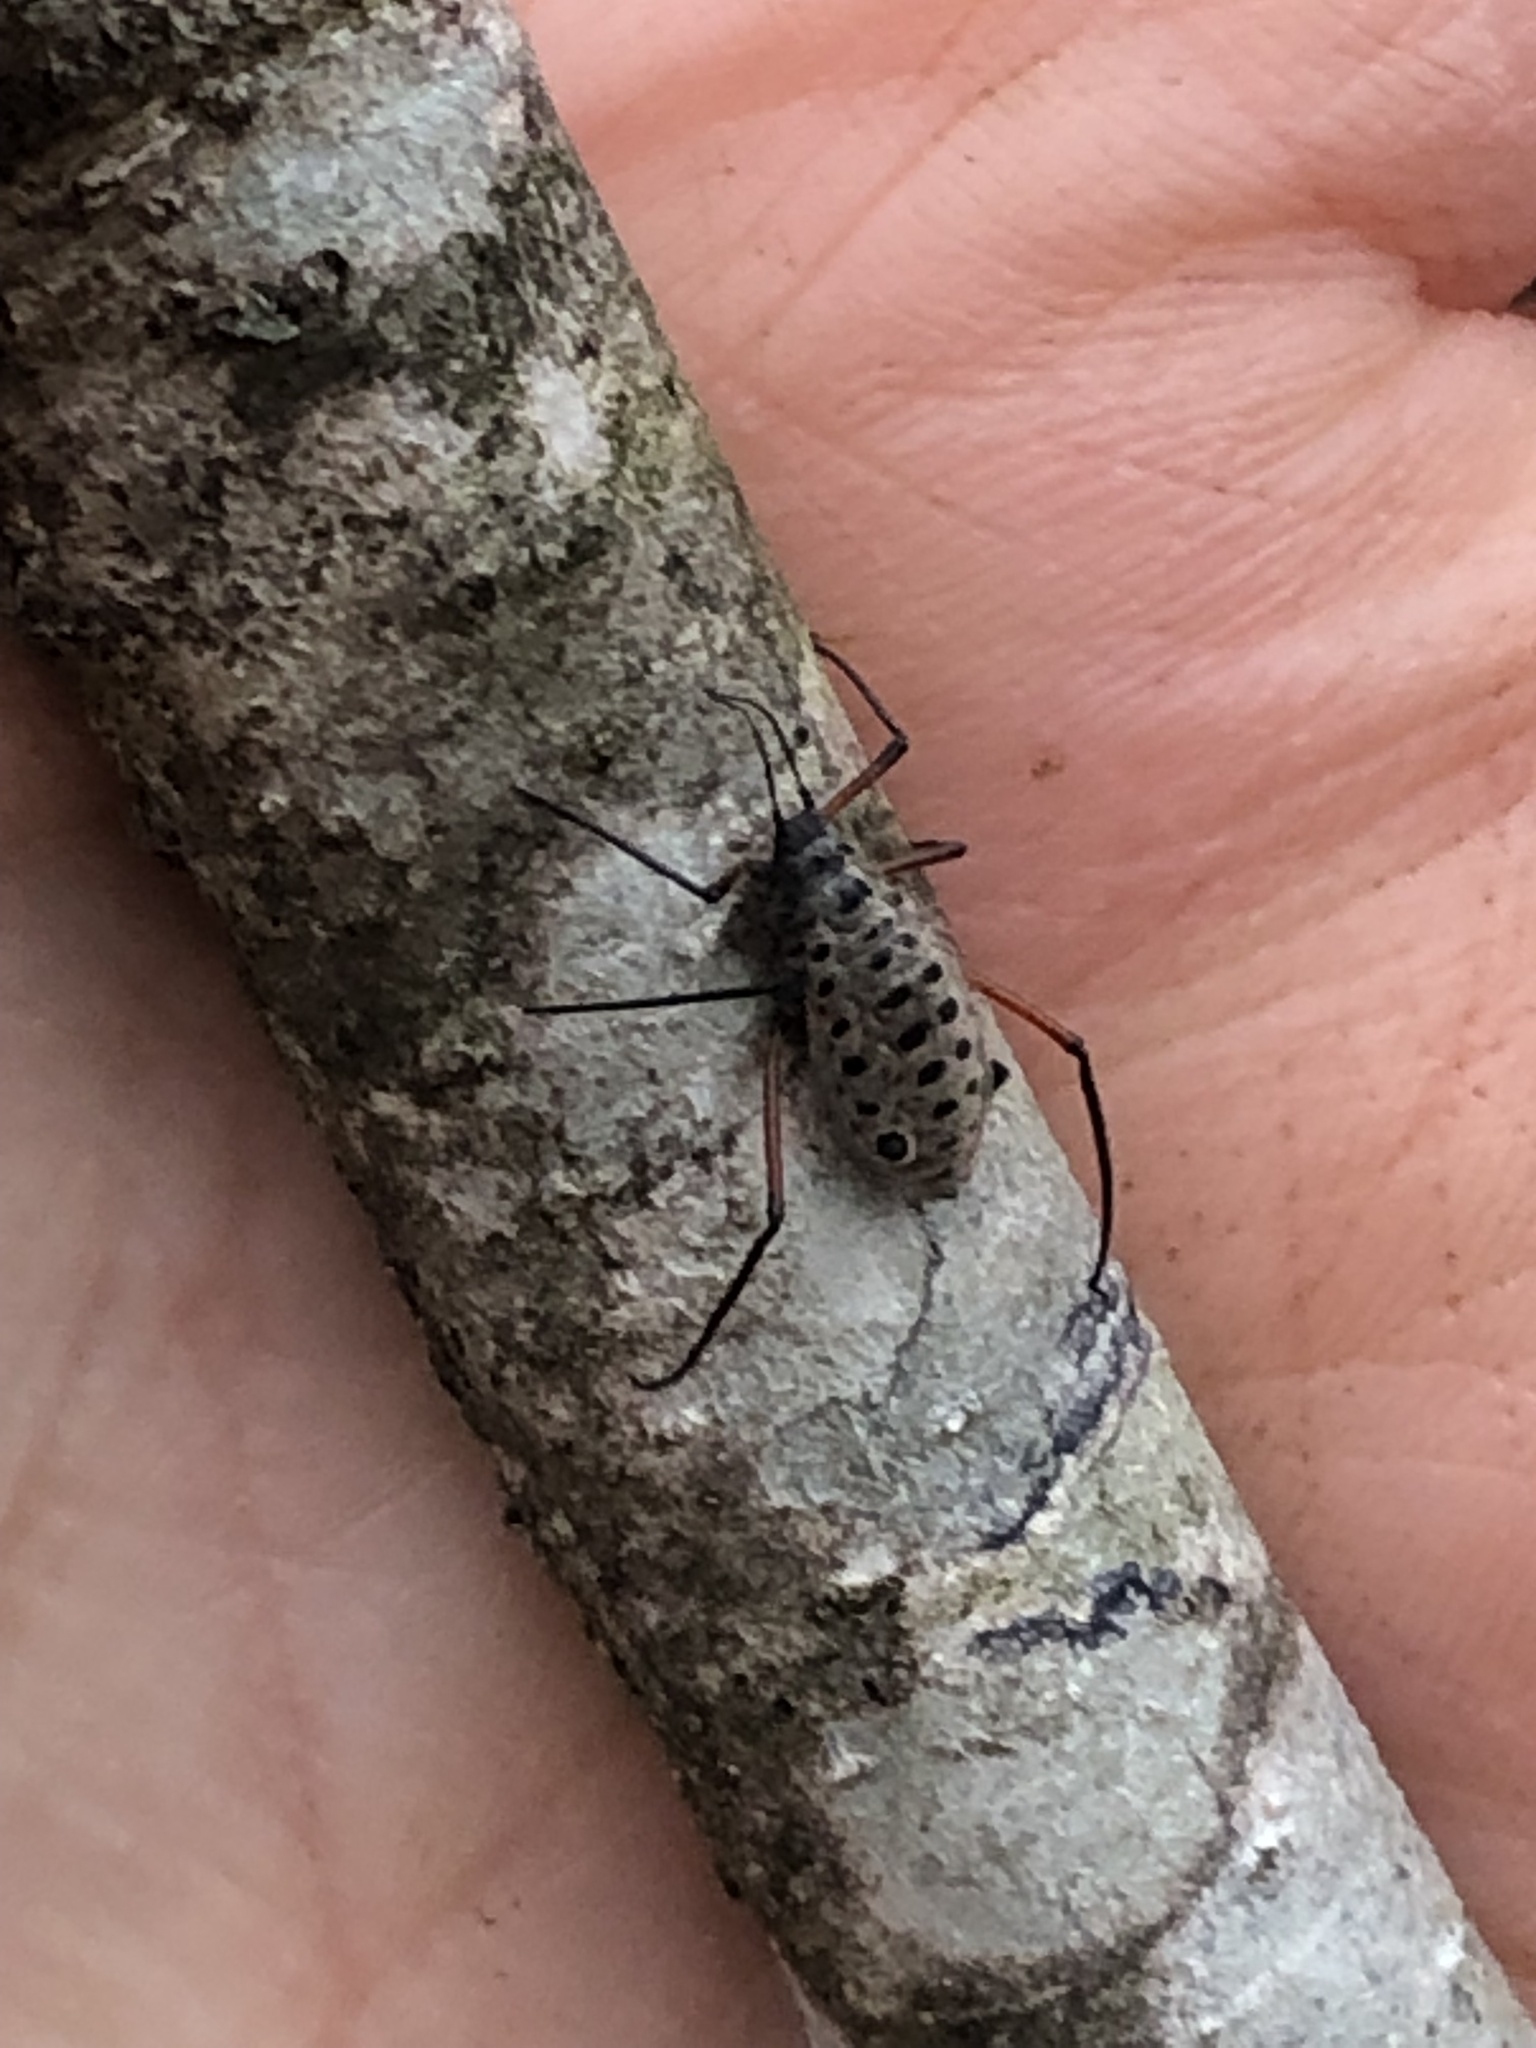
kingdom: Animalia
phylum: Arthropoda
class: Insecta
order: Hemiptera
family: Aphididae
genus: Longistigma
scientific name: Longistigma caryae
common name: Giant bark aphid
